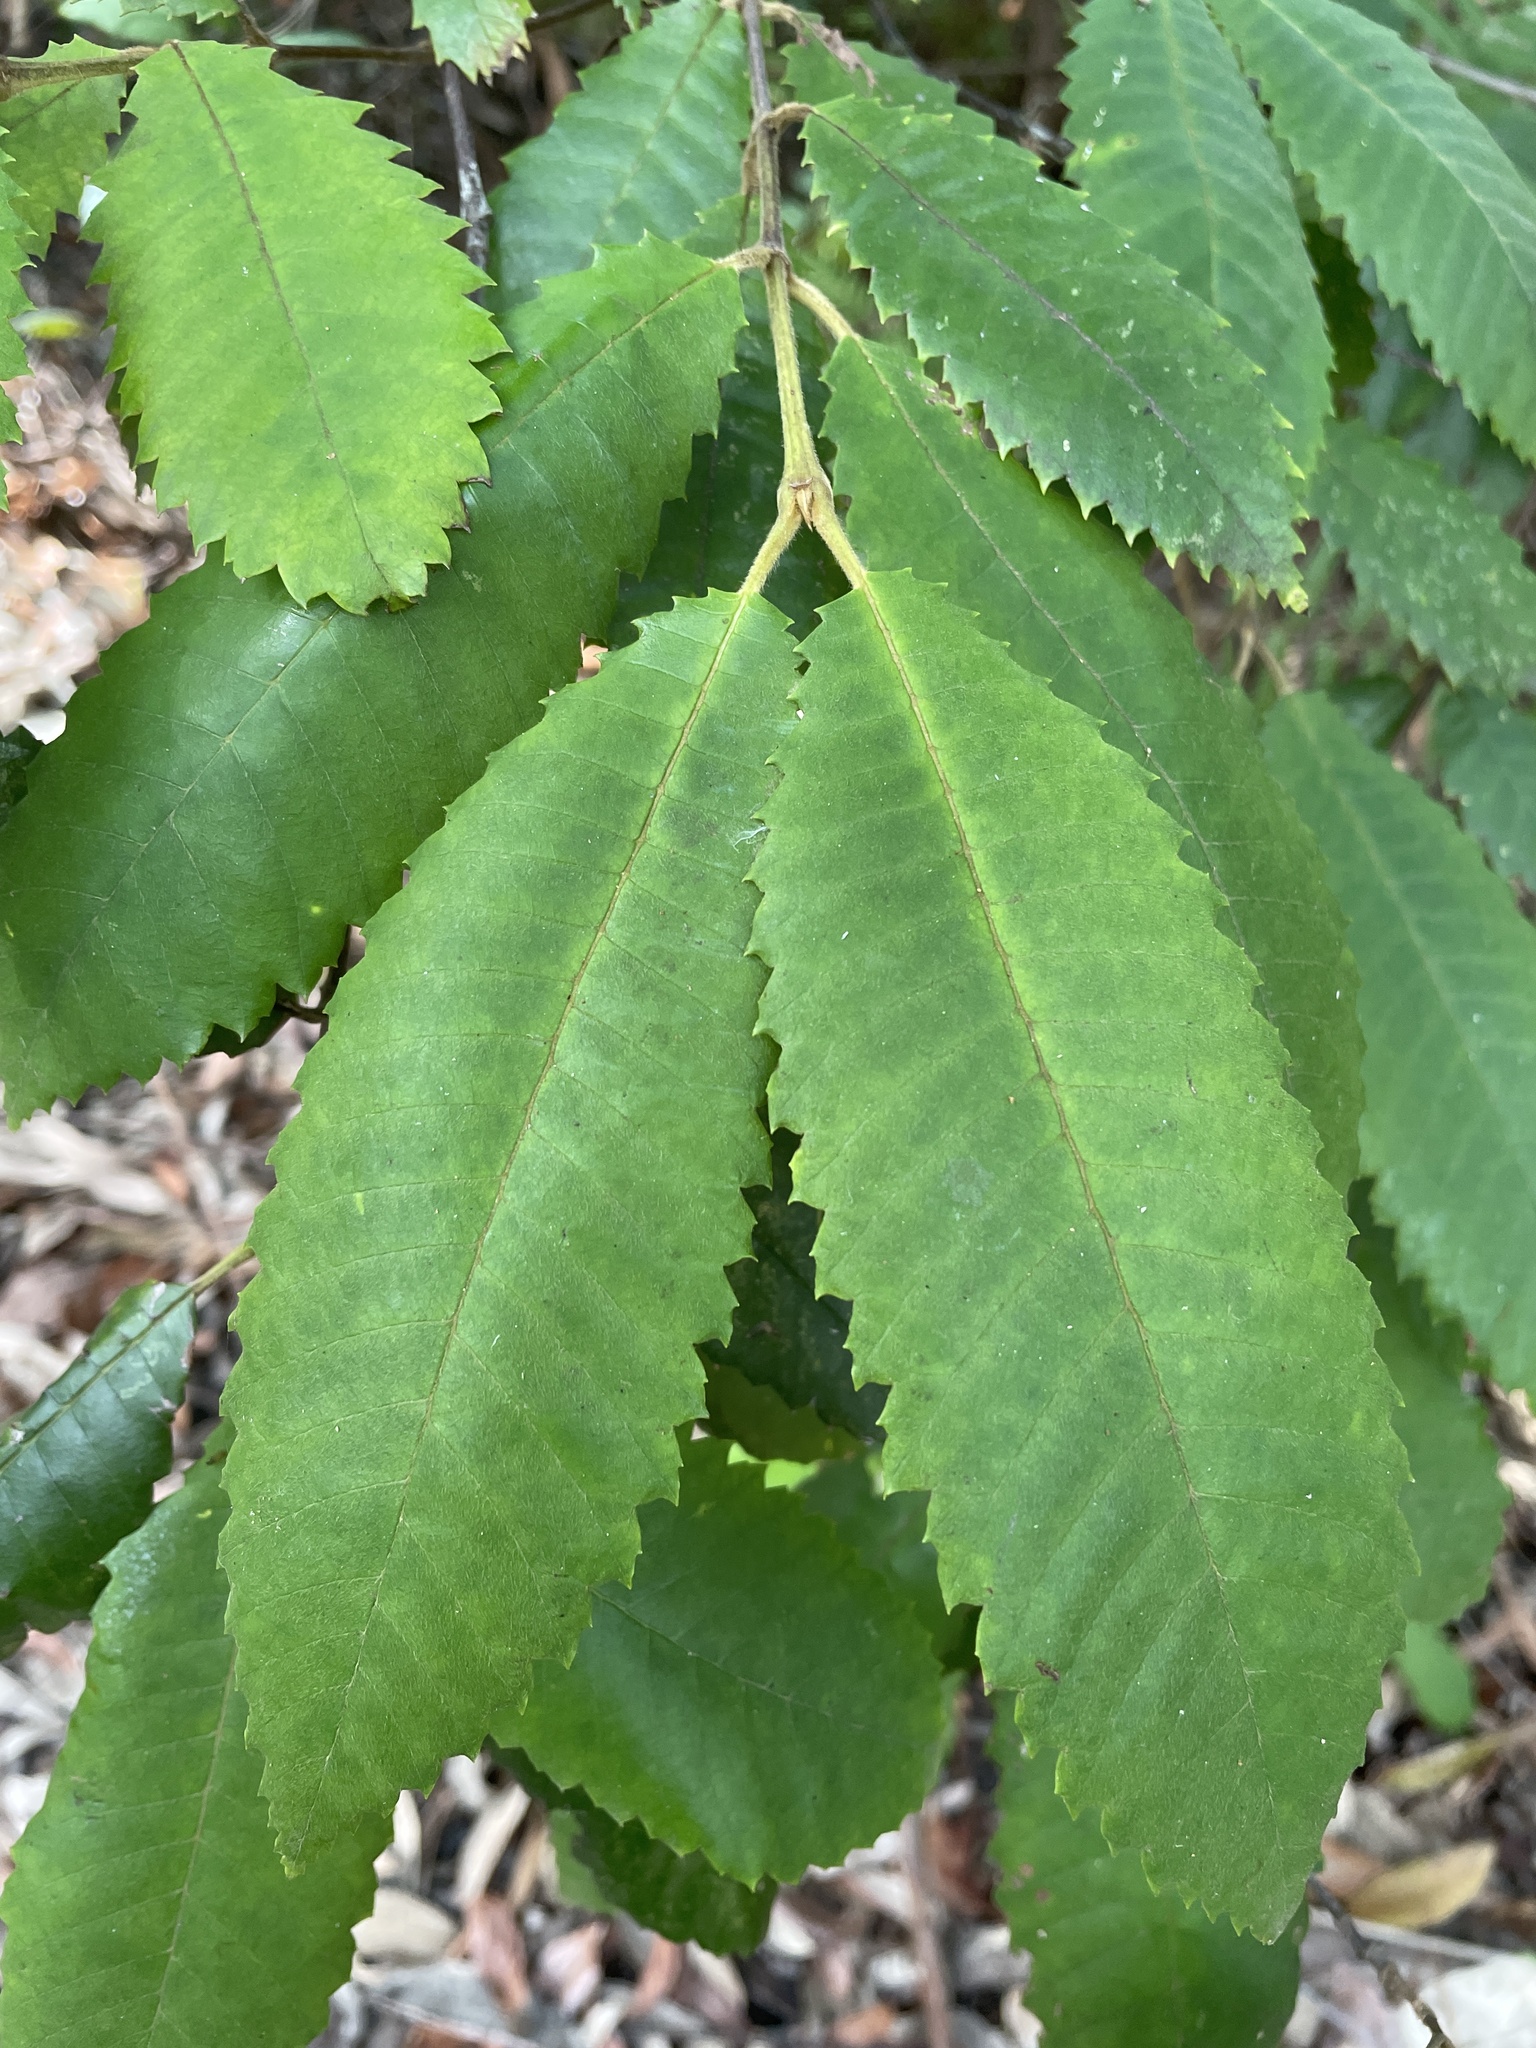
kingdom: Plantae
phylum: Tracheophyta
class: Magnoliopsida
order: Oxalidales
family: Cunoniaceae
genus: Callicoma
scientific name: Callicoma serratifolia
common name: Black wattle
